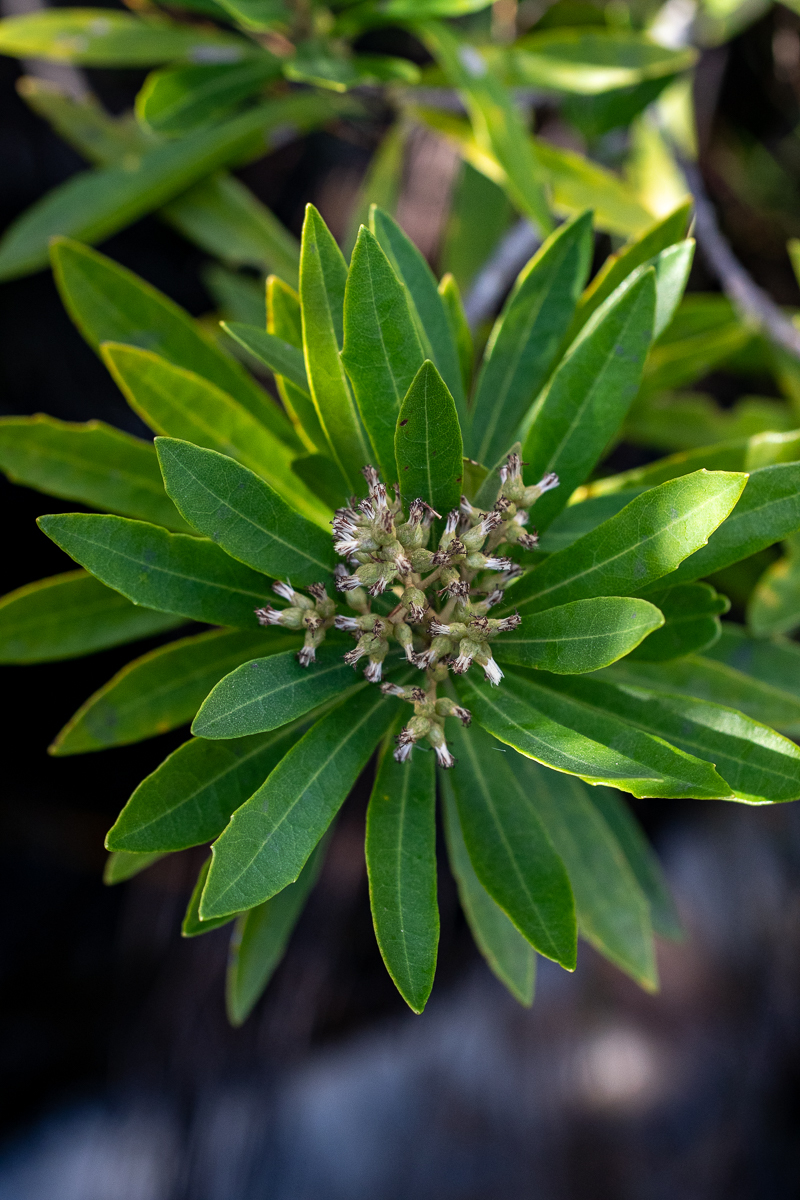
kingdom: Plantae
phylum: Tracheophyta
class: Magnoliopsida
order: Asterales
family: Asteraceae
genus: Brachylaena
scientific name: Brachylaena neriifolia
